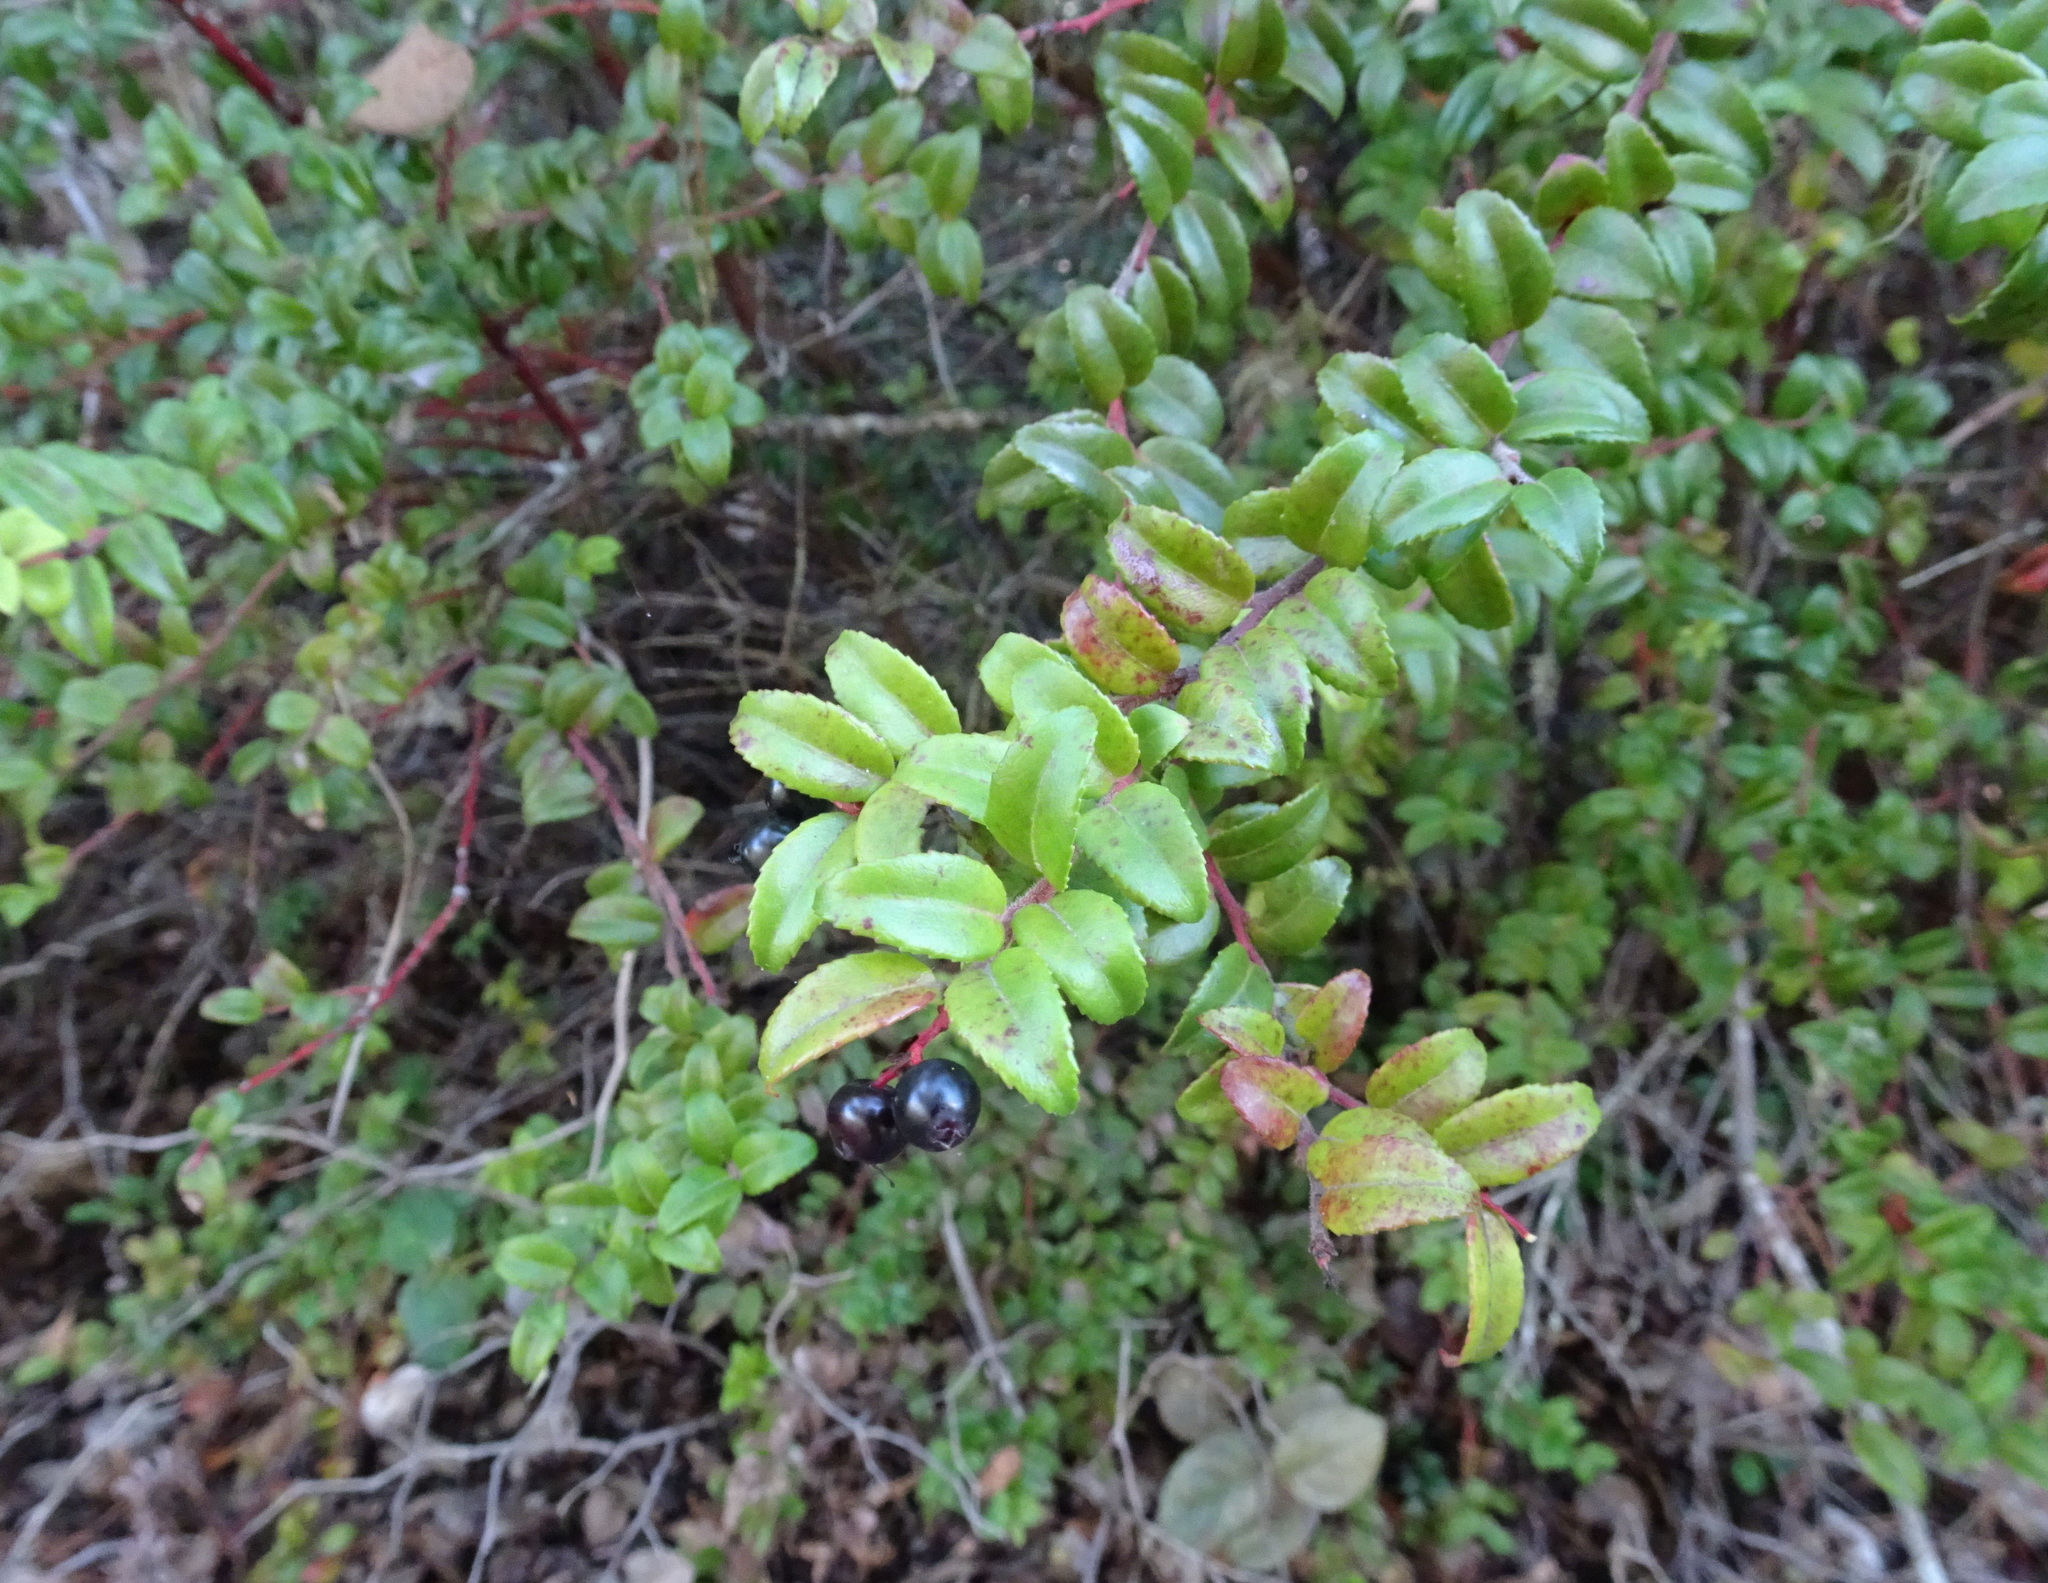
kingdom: Plantae
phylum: Tracheophyta
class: Magnoliopsida
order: Ericales
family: Ericaceae
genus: Vaccinium
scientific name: Vaccinium ovatum
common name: California-huckleberry
